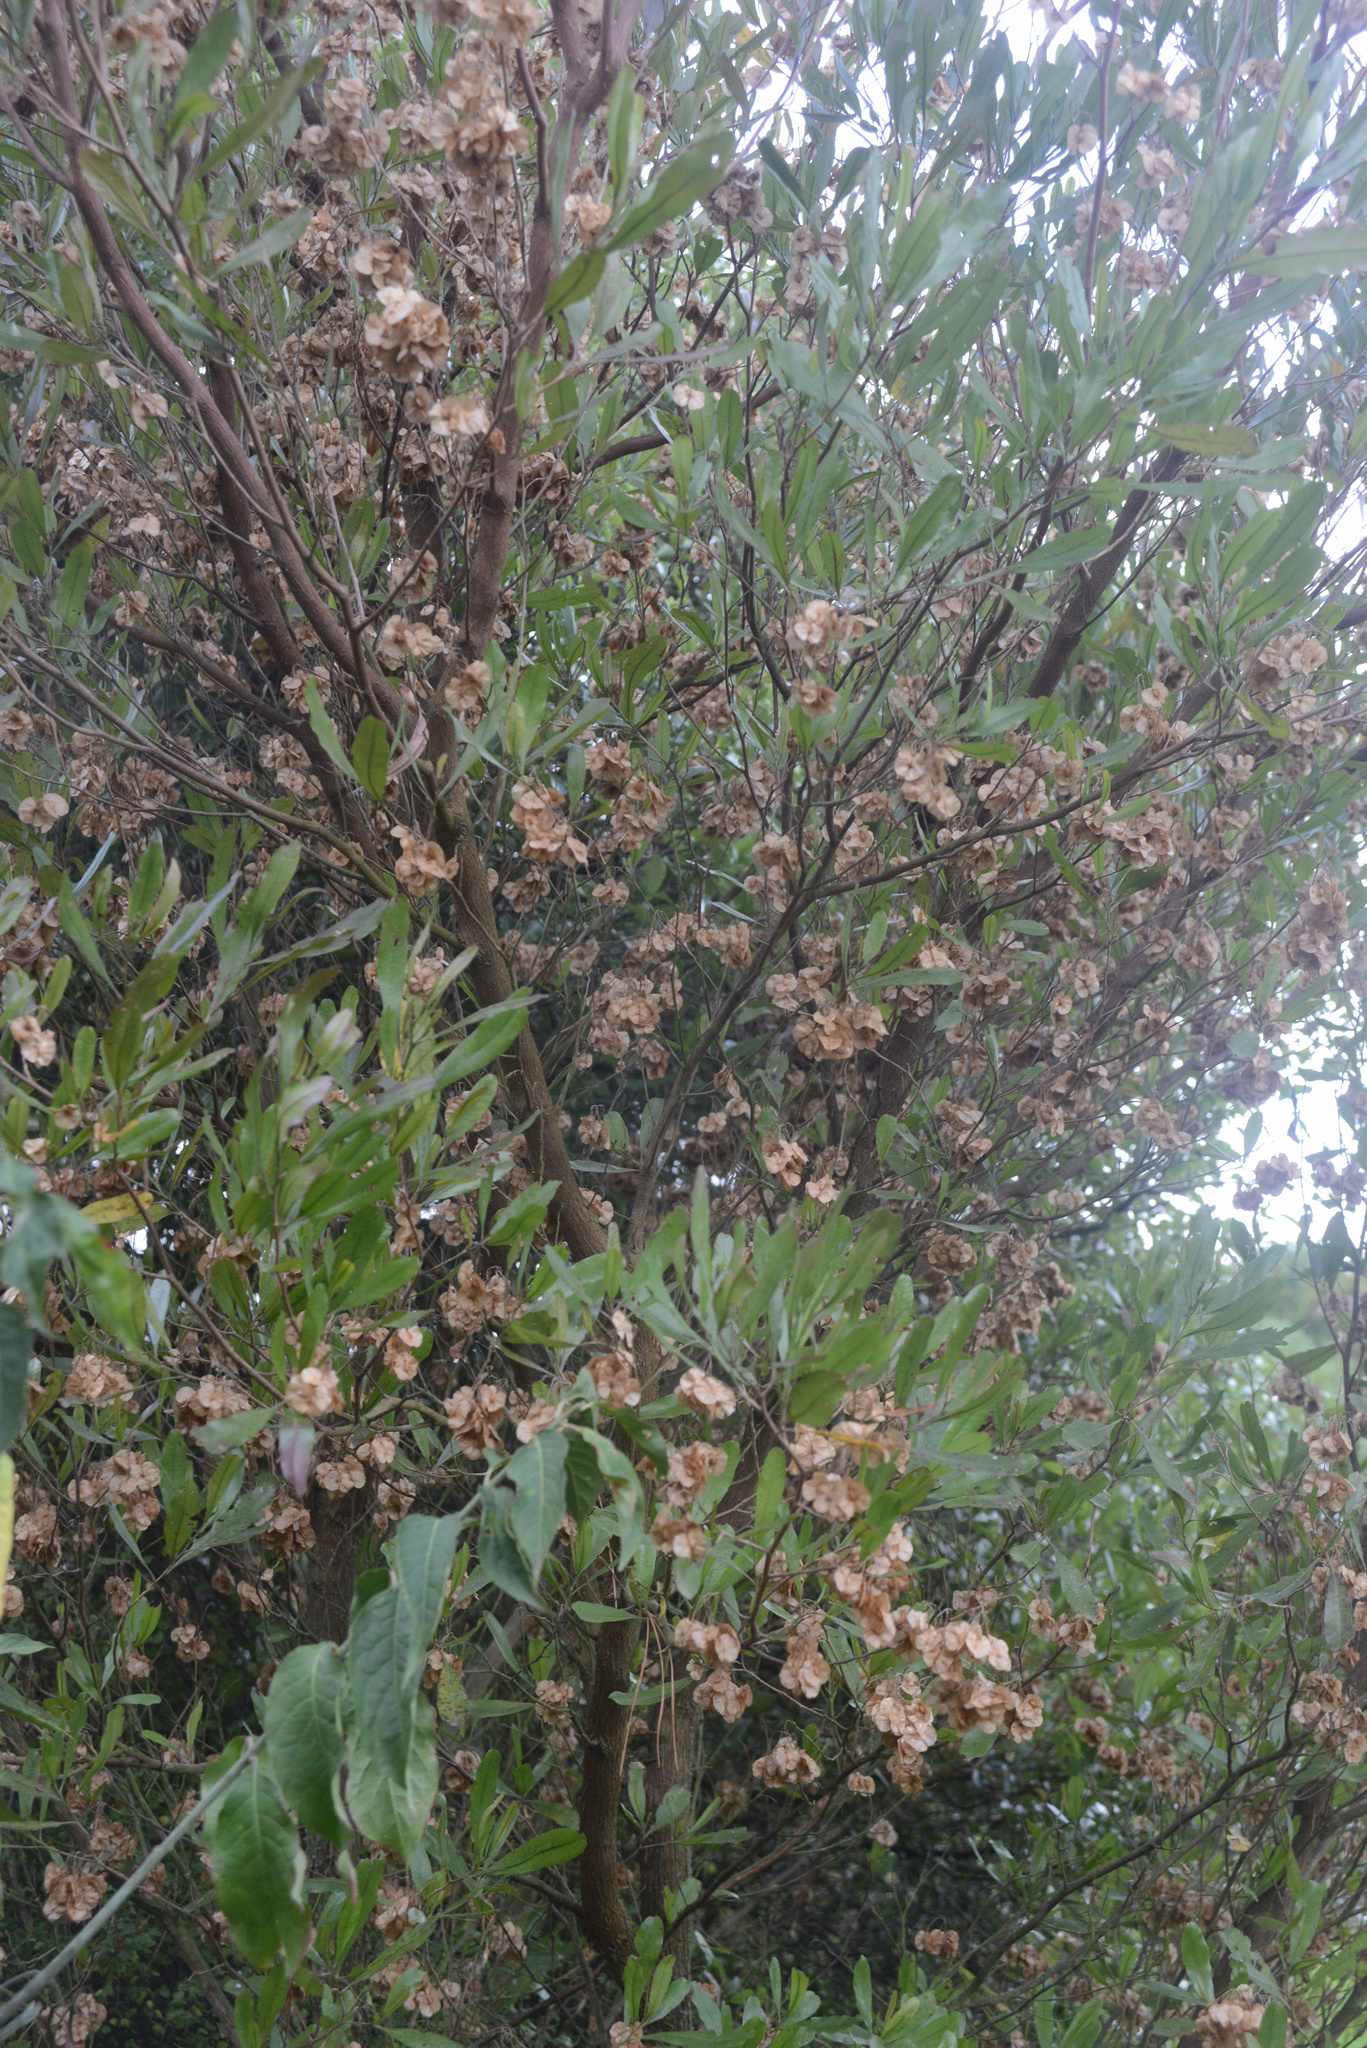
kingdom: Plantae
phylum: Tracheophyta
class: Magnoliopsida
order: Sapindales
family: Sapindaceae
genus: Dodonaea
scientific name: Dodonaea viscosa
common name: Hopbush
